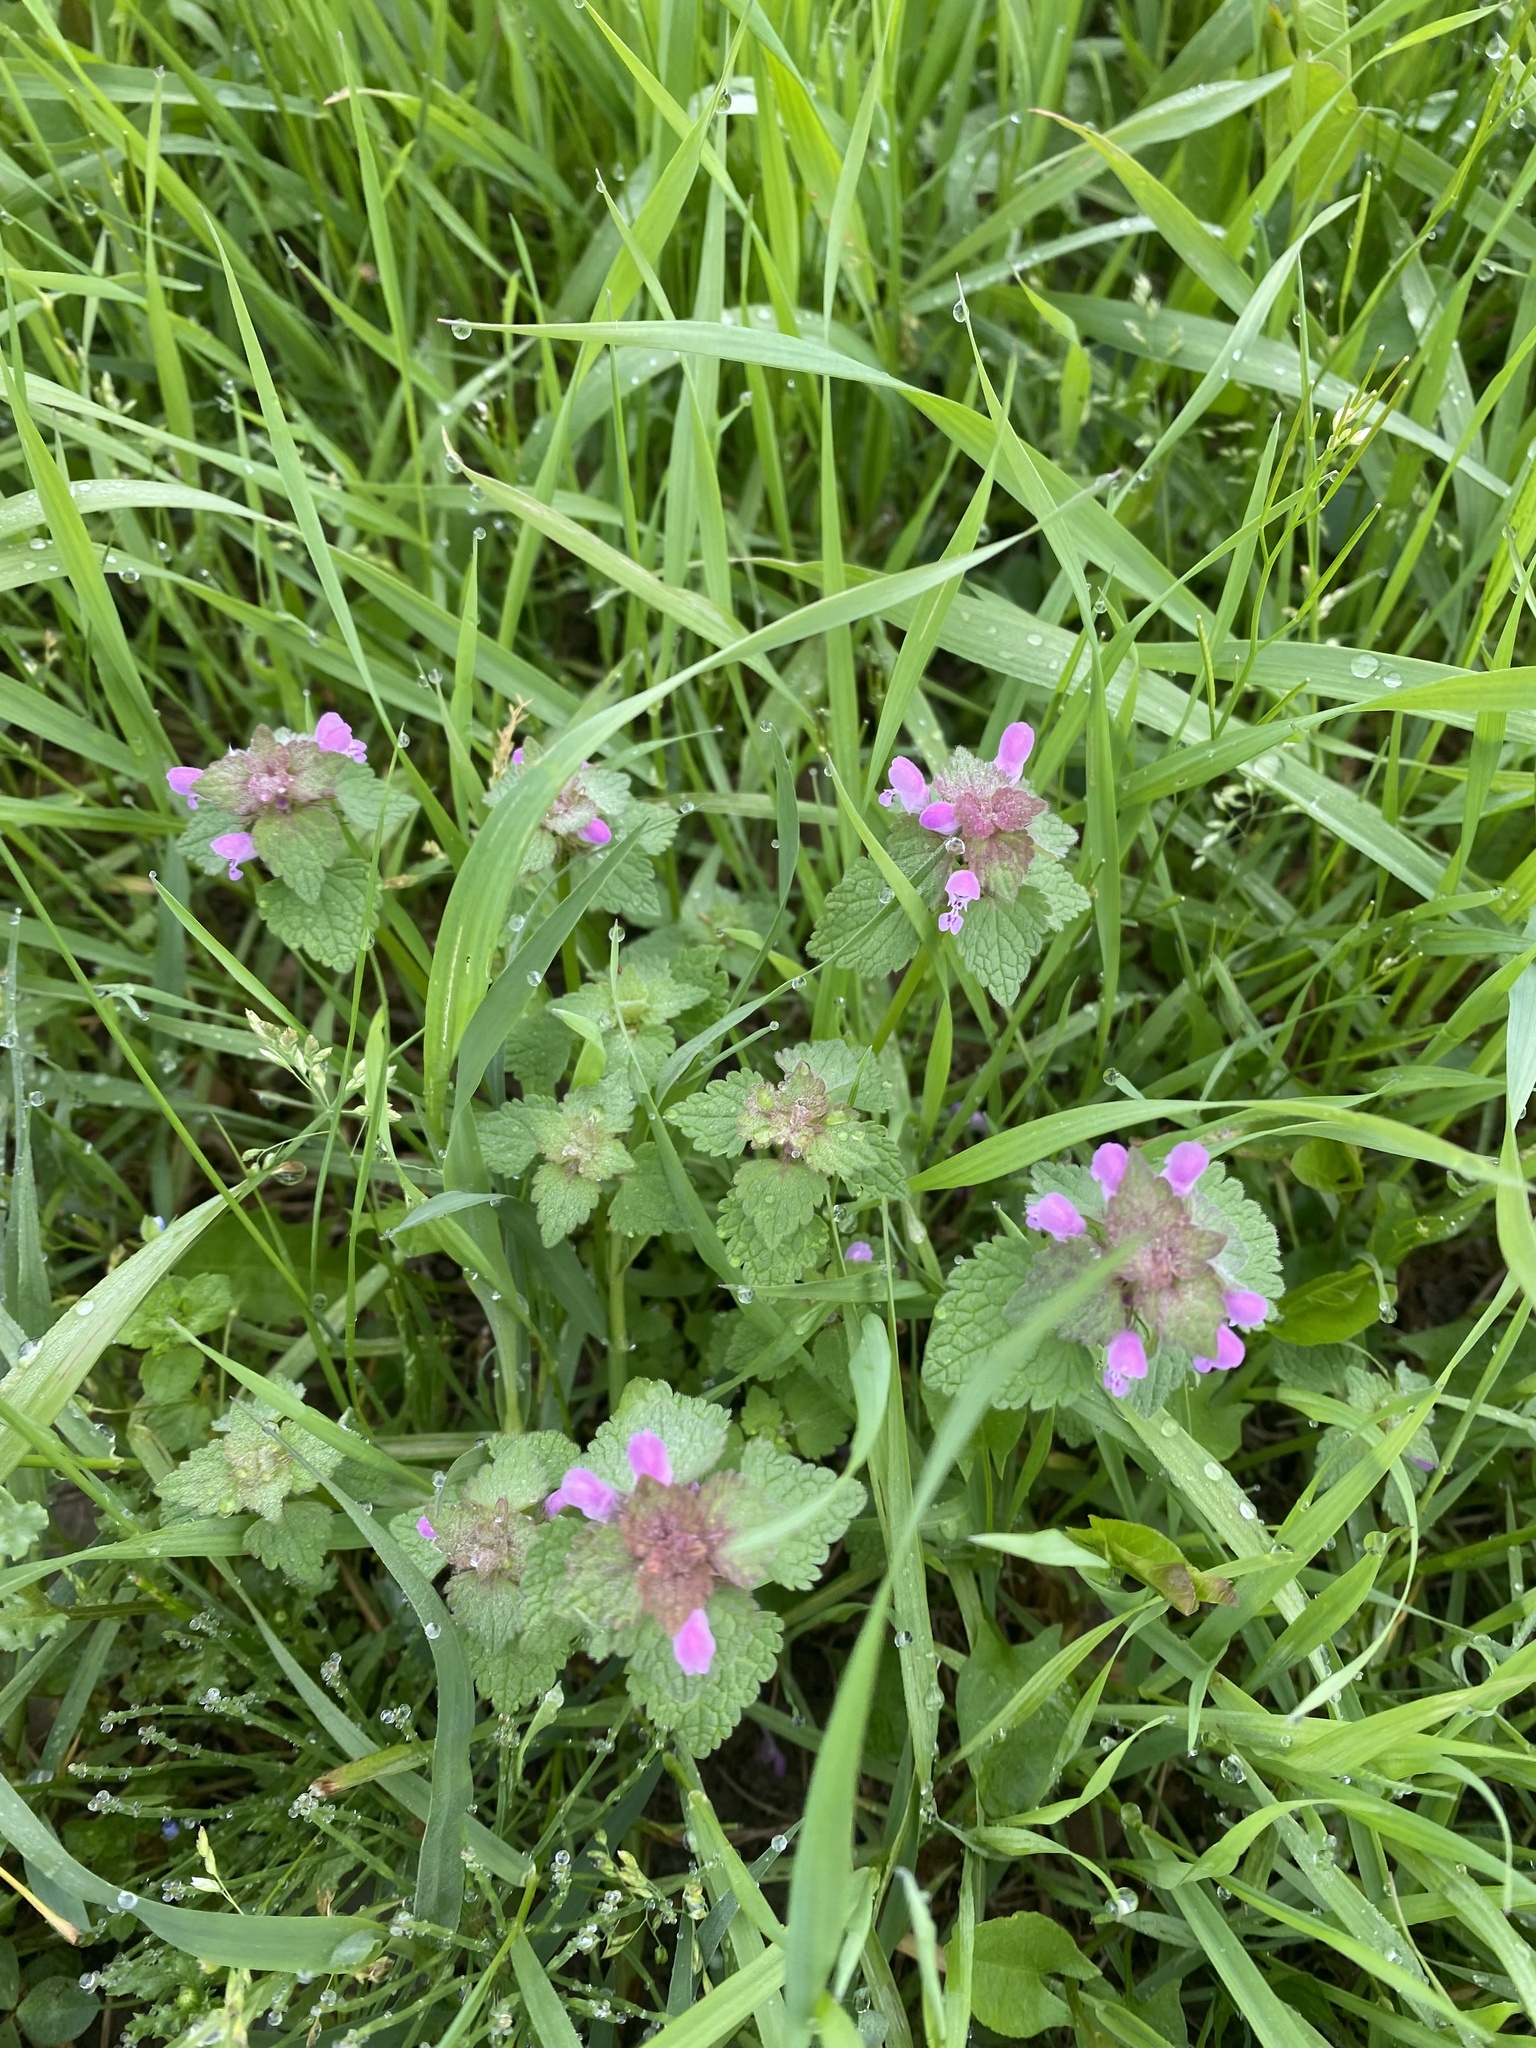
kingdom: Plantae
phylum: Tracheophyta
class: Magnoliopsida
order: Lamiales
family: Lamiaceae
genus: Lamium
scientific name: Lamium purpureum
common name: Red dead-nettle
